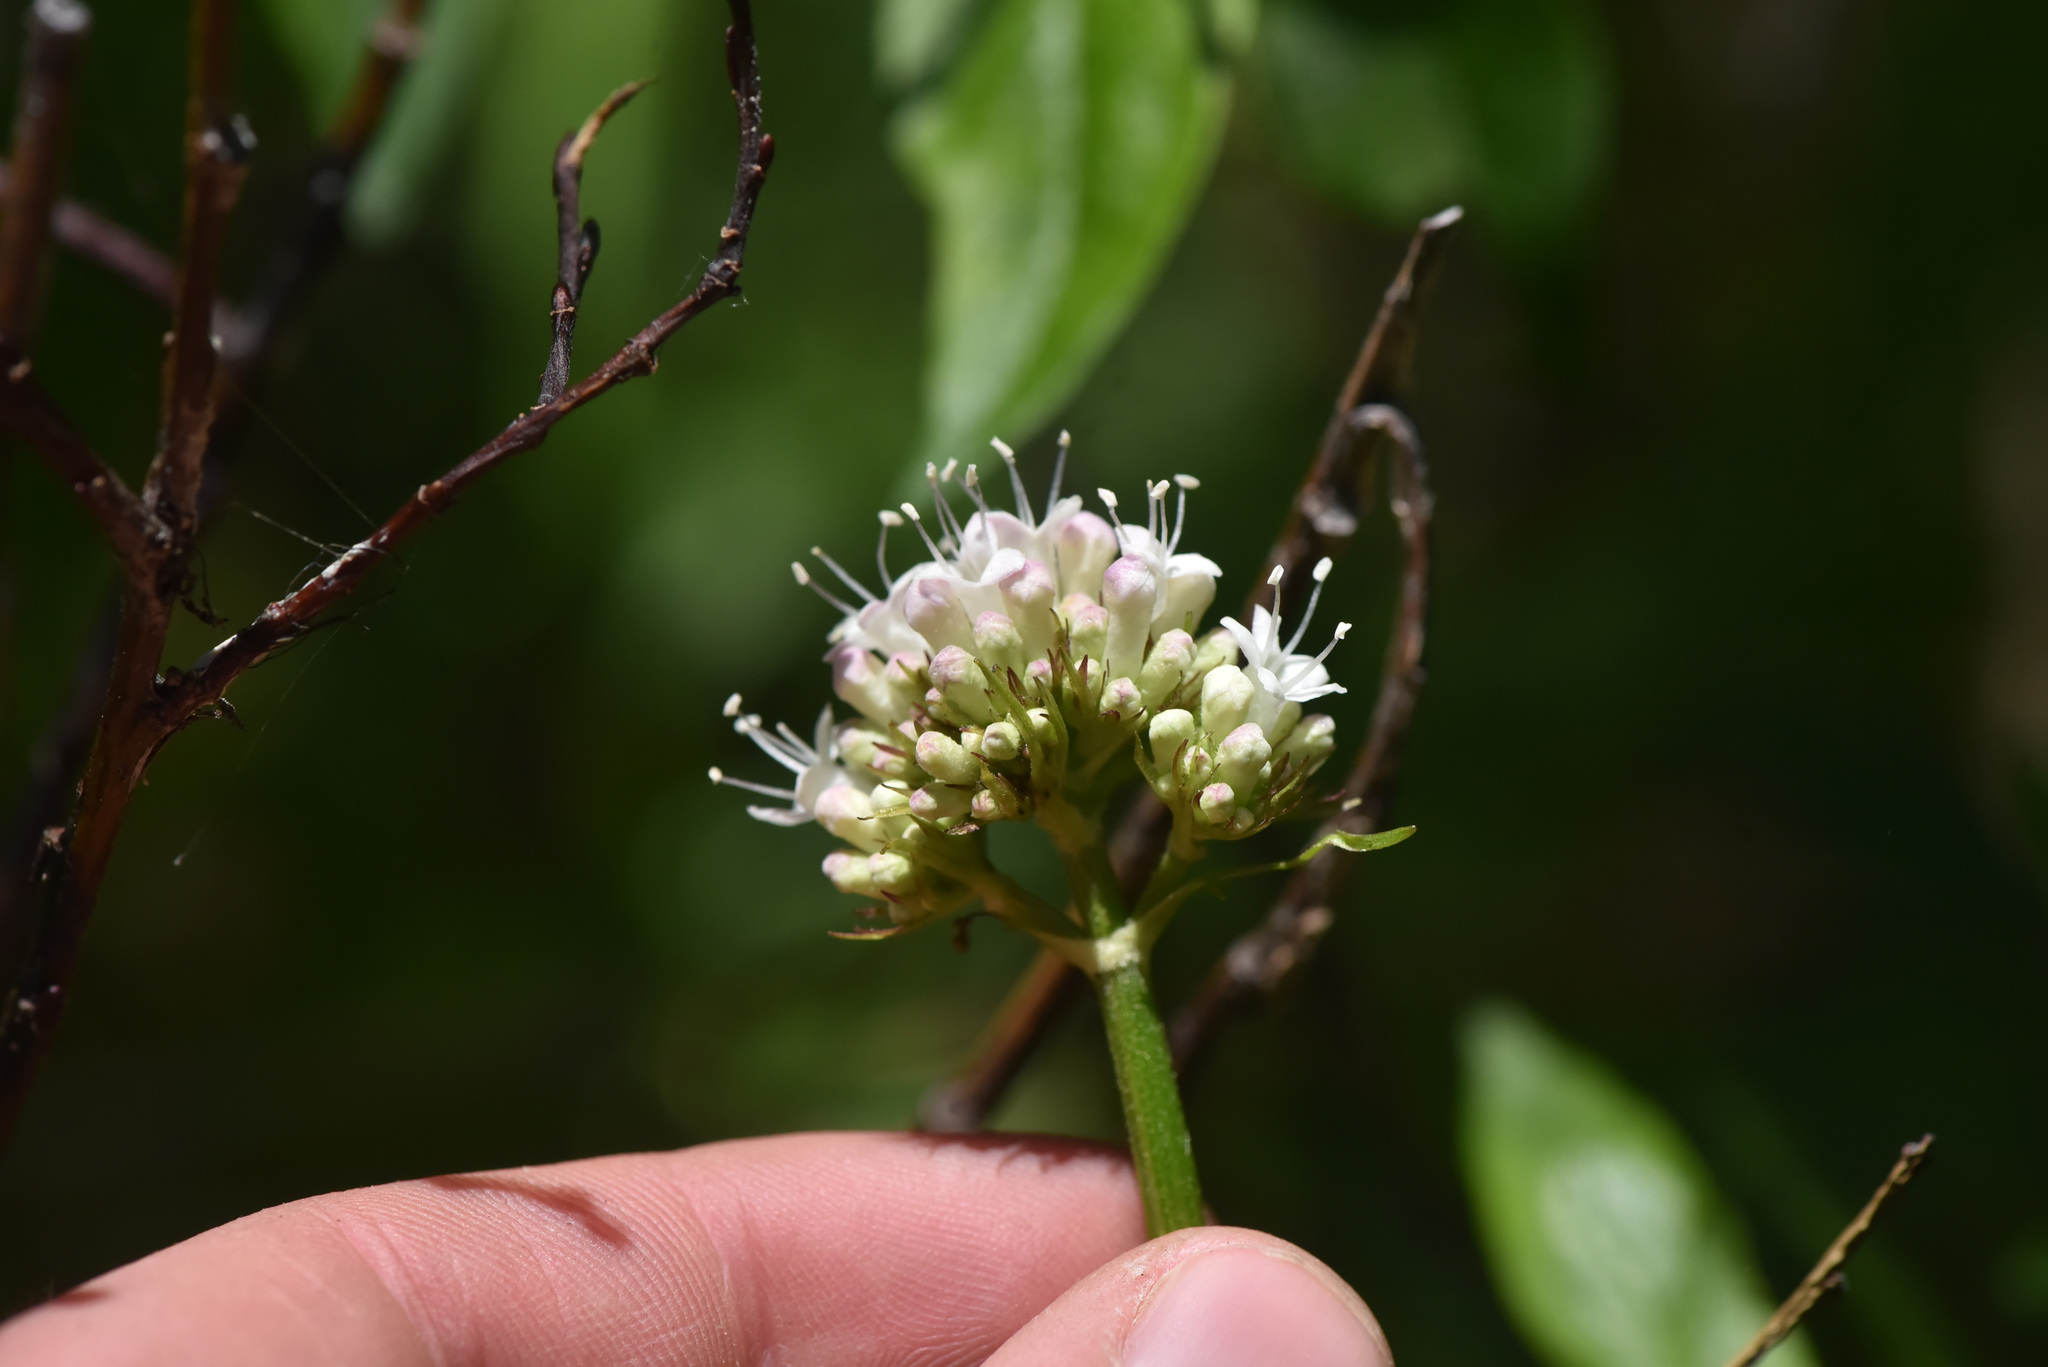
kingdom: Plantae
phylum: Tracheophyta
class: Magnoliopsida
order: Dipsacales
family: Caprifoliaceae
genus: Valeriana
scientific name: Valeriana sitchensis
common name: Pacific valerian
